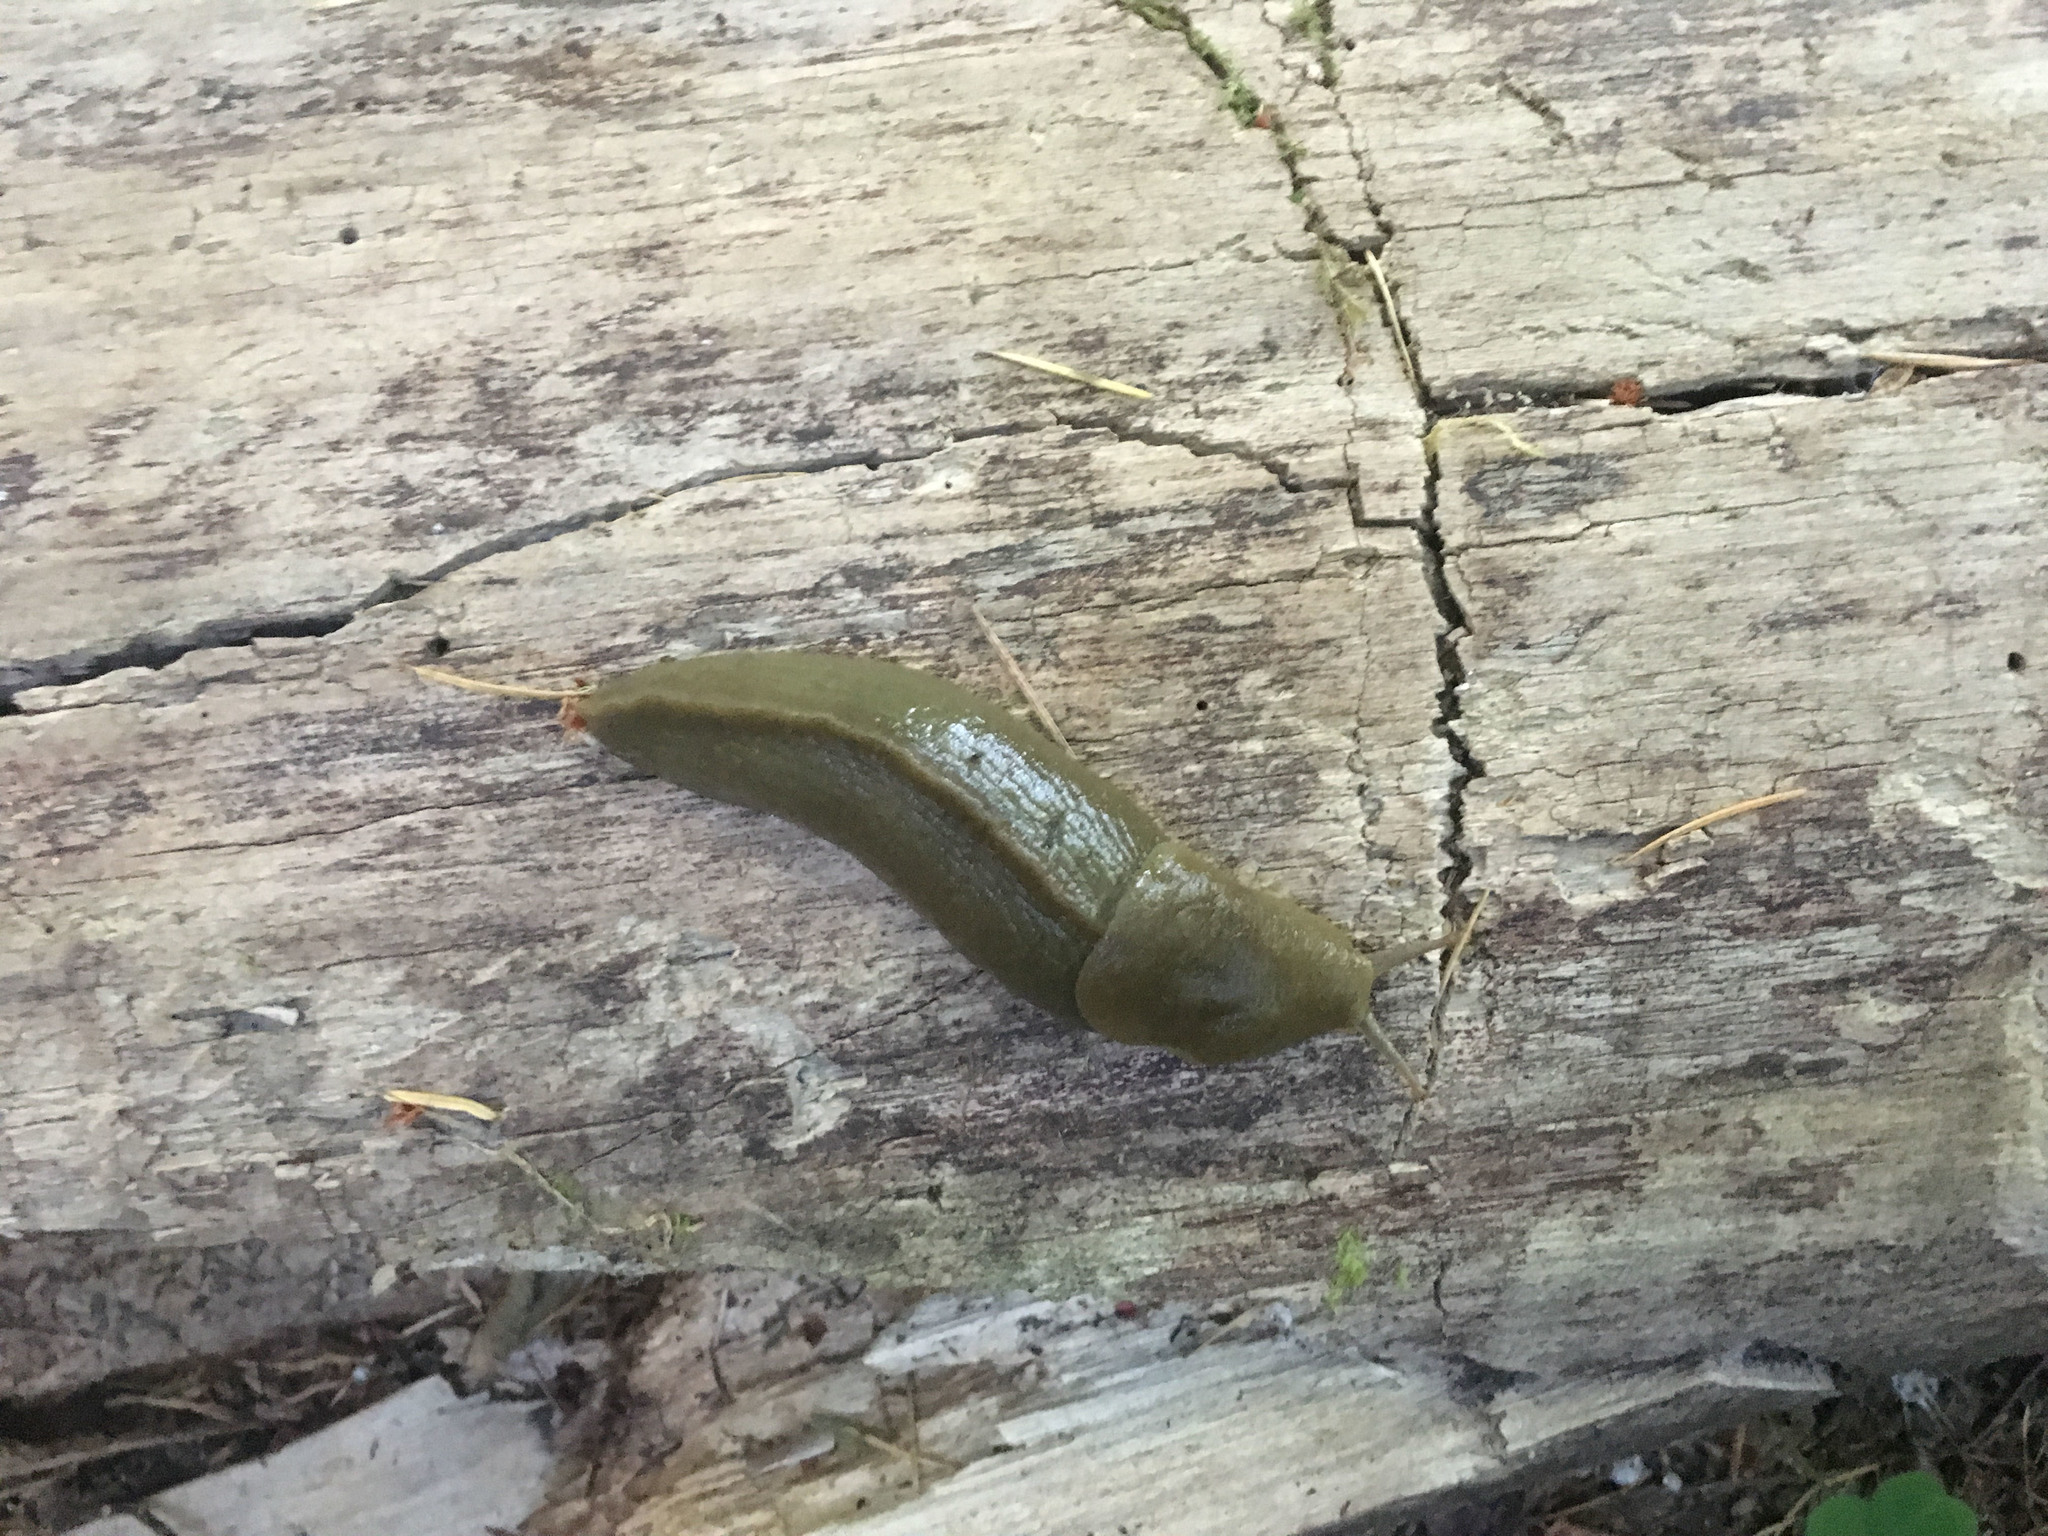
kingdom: Animalia
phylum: Mollusca
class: Gastropoda
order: Stylommatophora
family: Ariolimacidae
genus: Ariolimax
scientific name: Ariolimax columbianus
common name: Pacific banana slug
